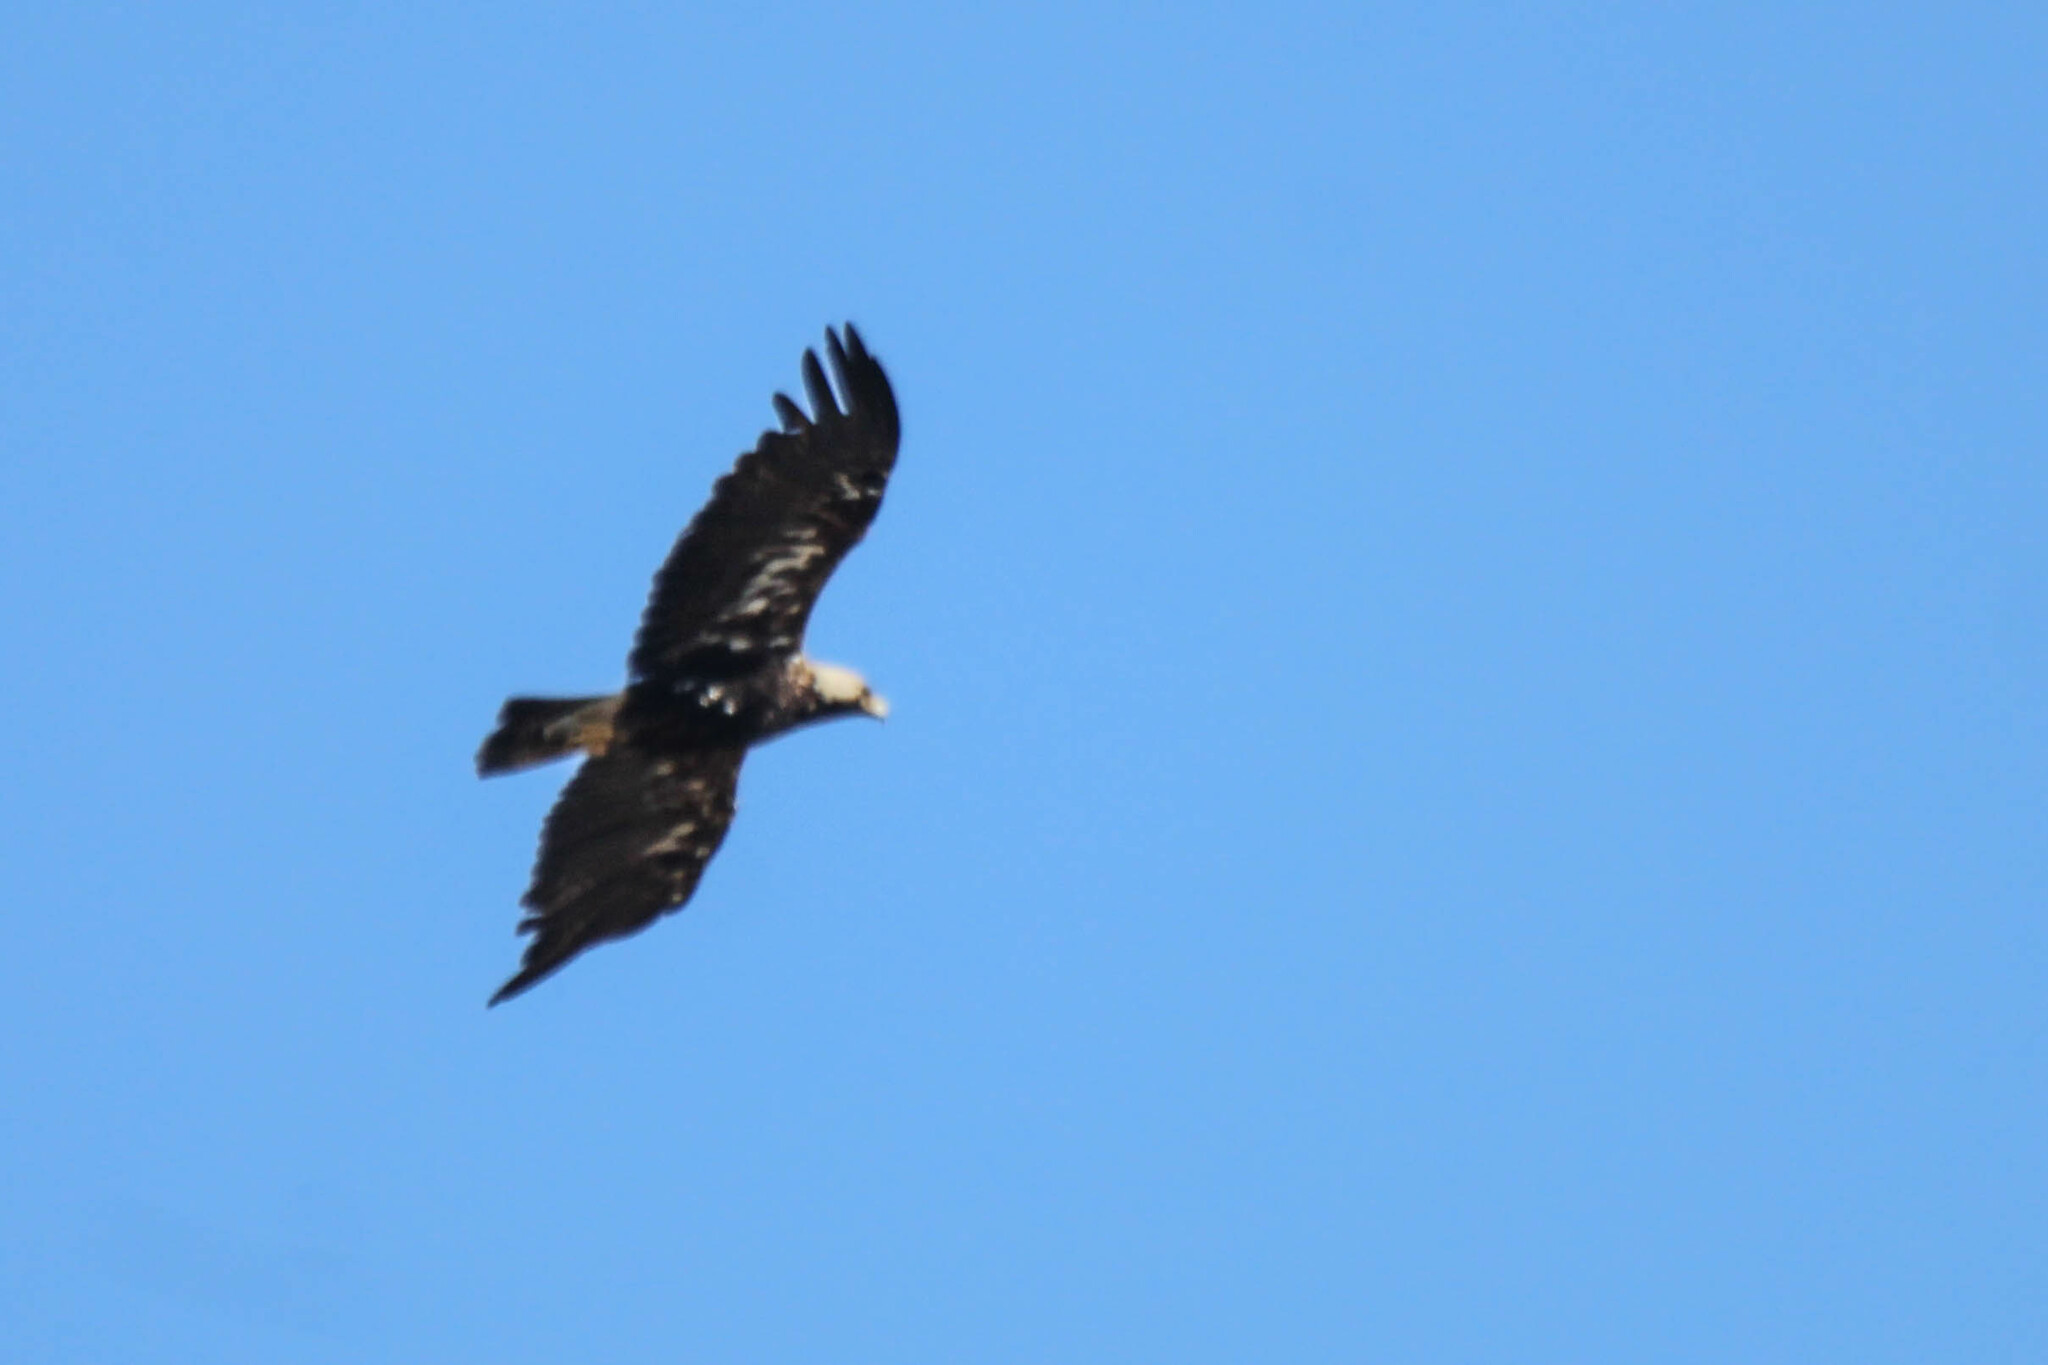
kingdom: Animalia
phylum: Chordata
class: Aves
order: Accipitriformes
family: Accipitridae
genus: Aquila
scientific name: Aquila heliaca
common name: Eastern imperial eagle
